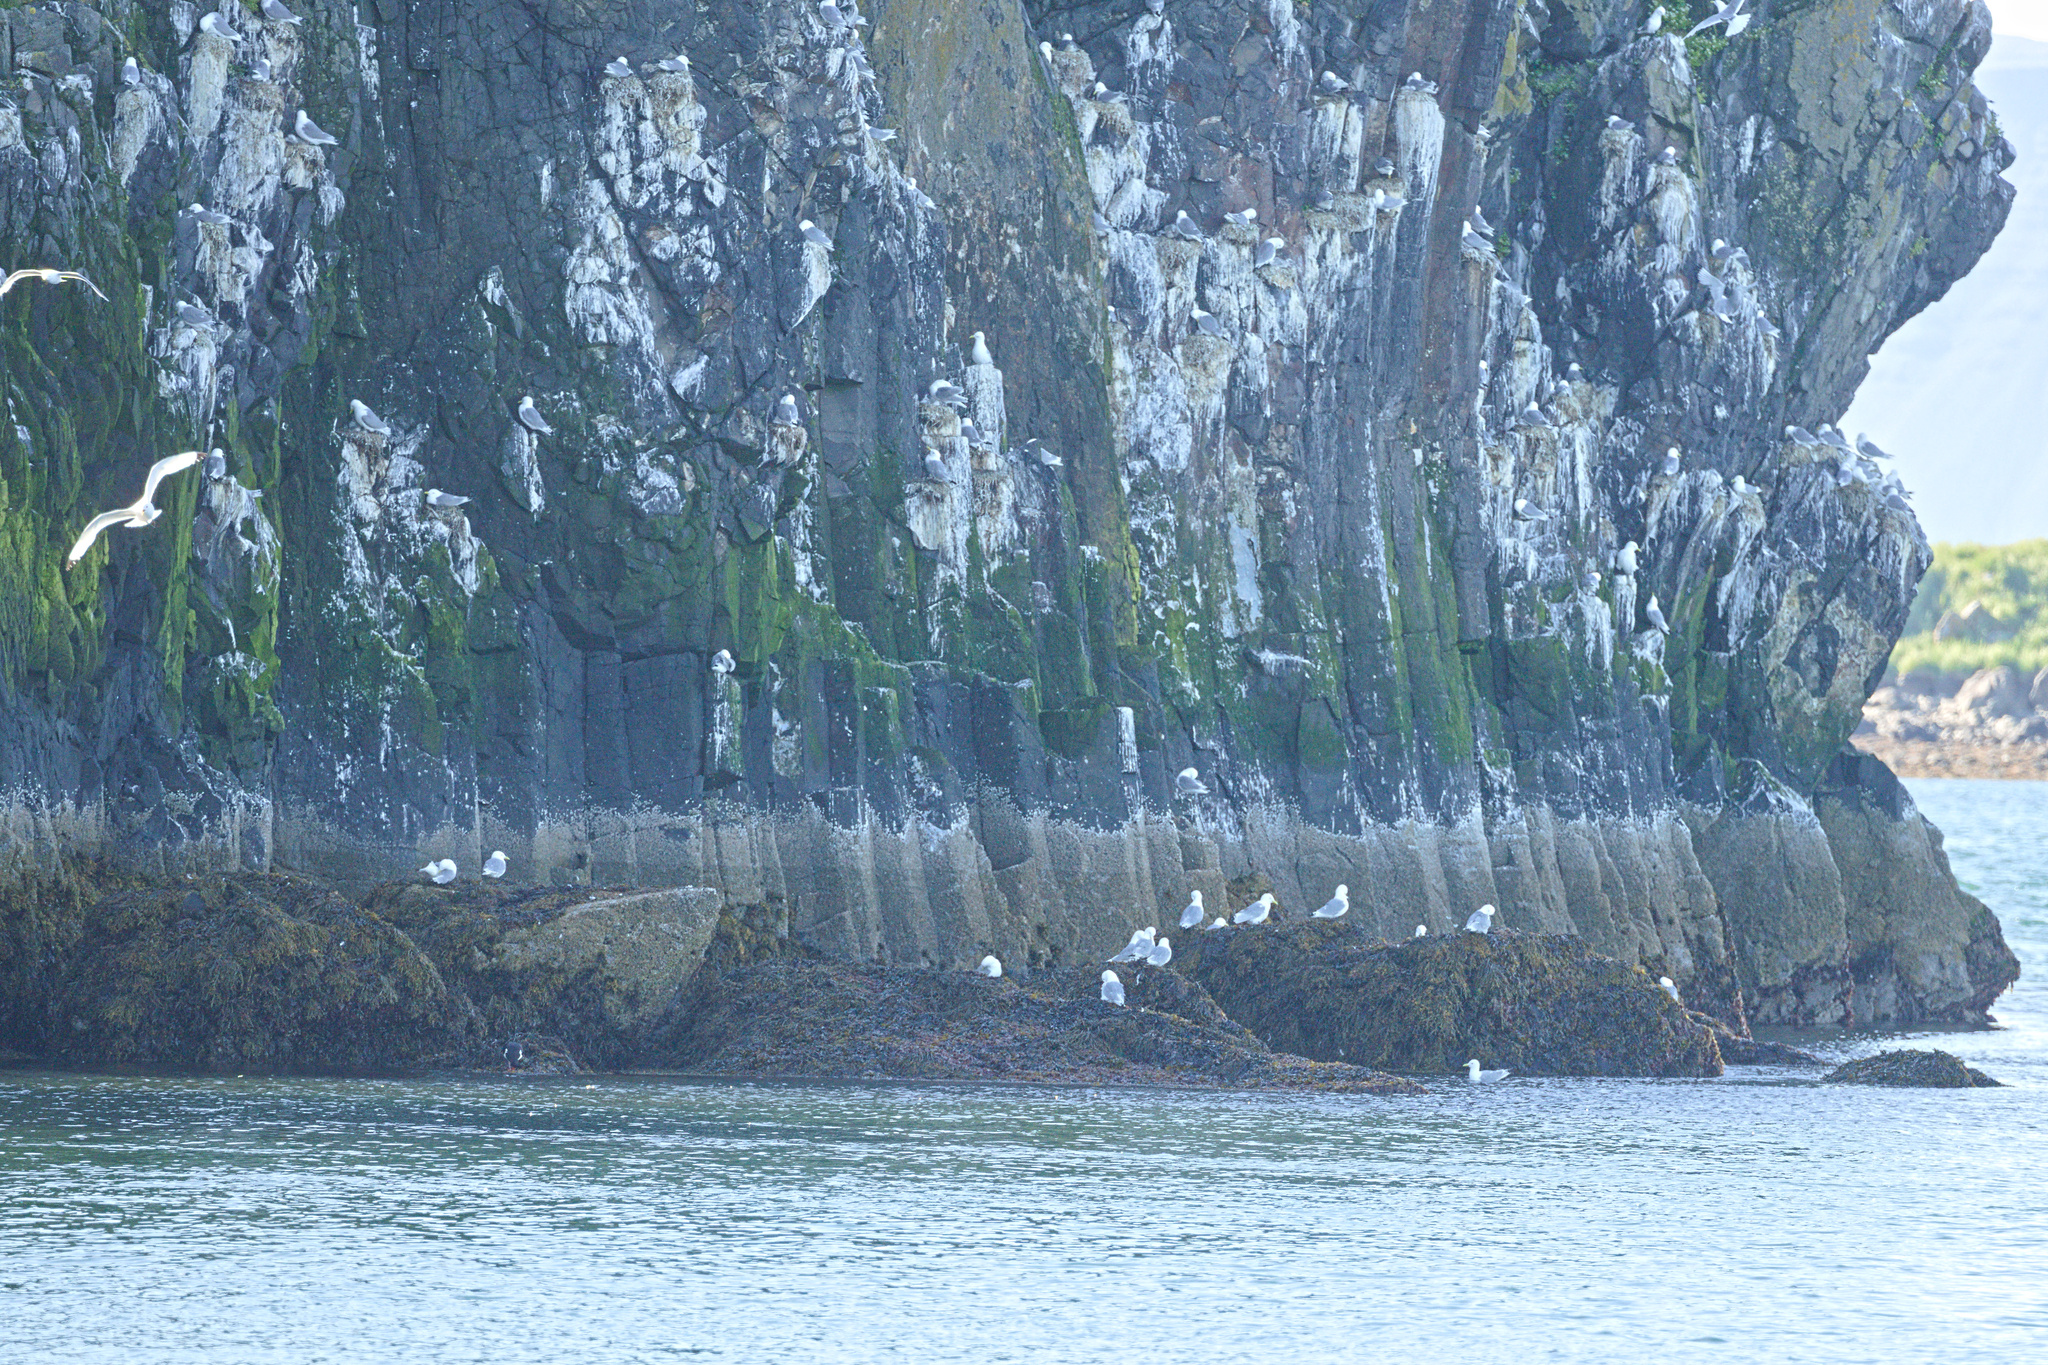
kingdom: Animalia
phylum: Chordata
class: Aves
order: Charadriiformes
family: Laridae
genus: Rissa
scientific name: Rissa tridactyla
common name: Black-legged kittiwake
